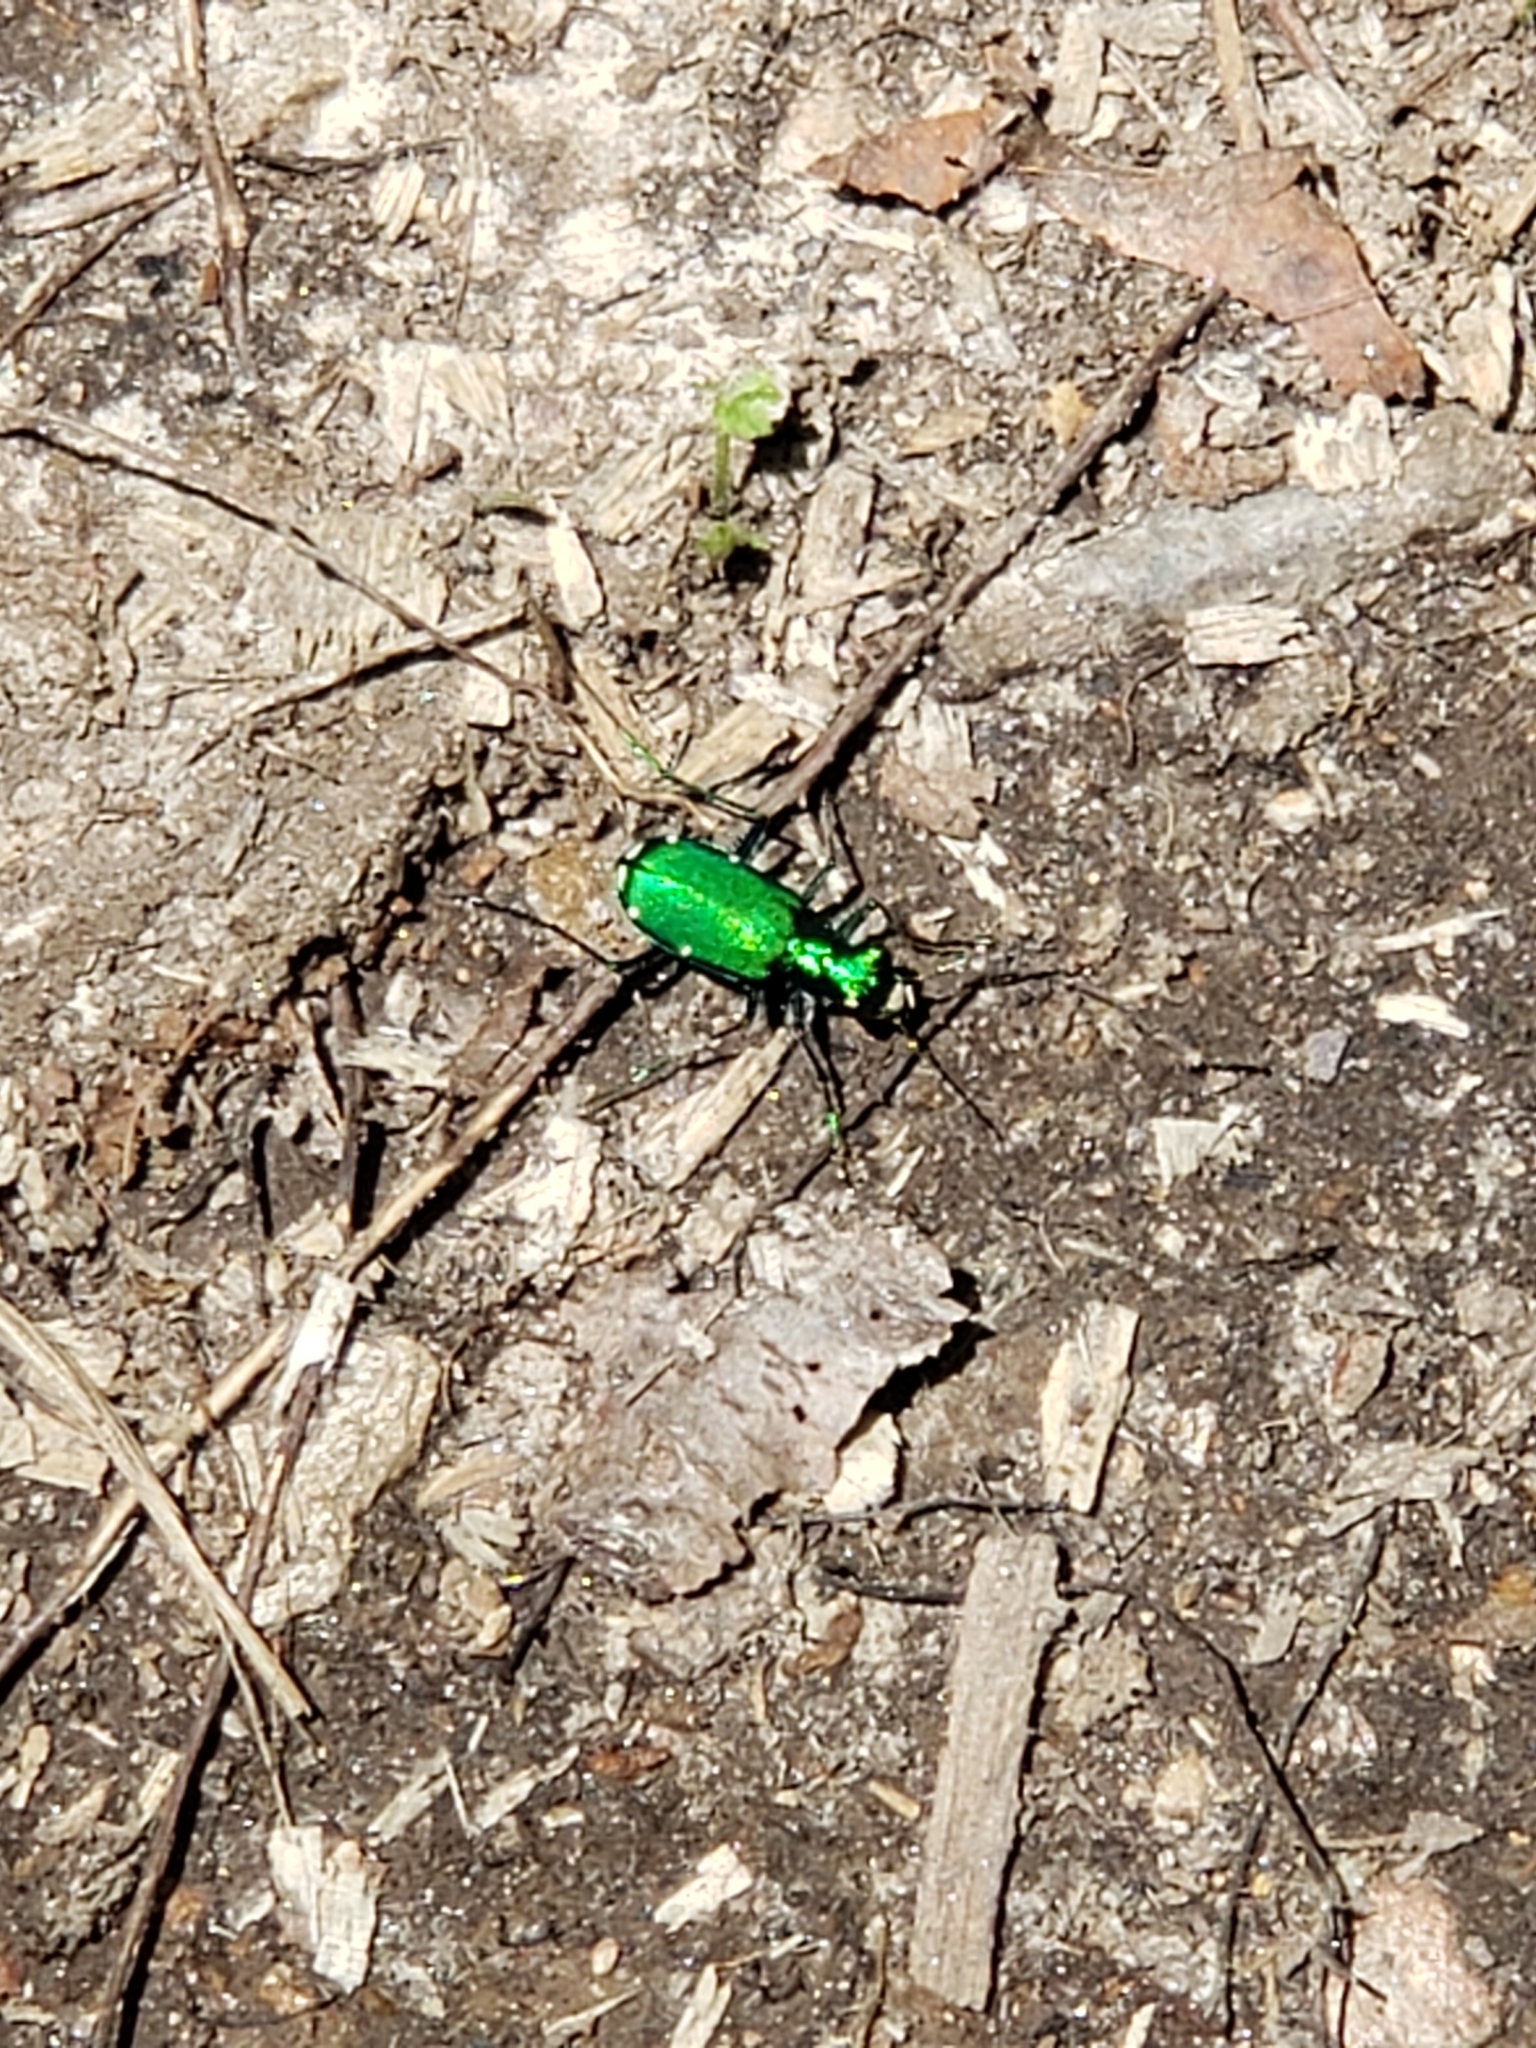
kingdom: Animalia
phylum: Arthropoda
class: Insecta
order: Coleoptera
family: Carabidae
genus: Cicindela
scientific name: Cicindela sexguttata
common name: Six-spotted tiger beetle
